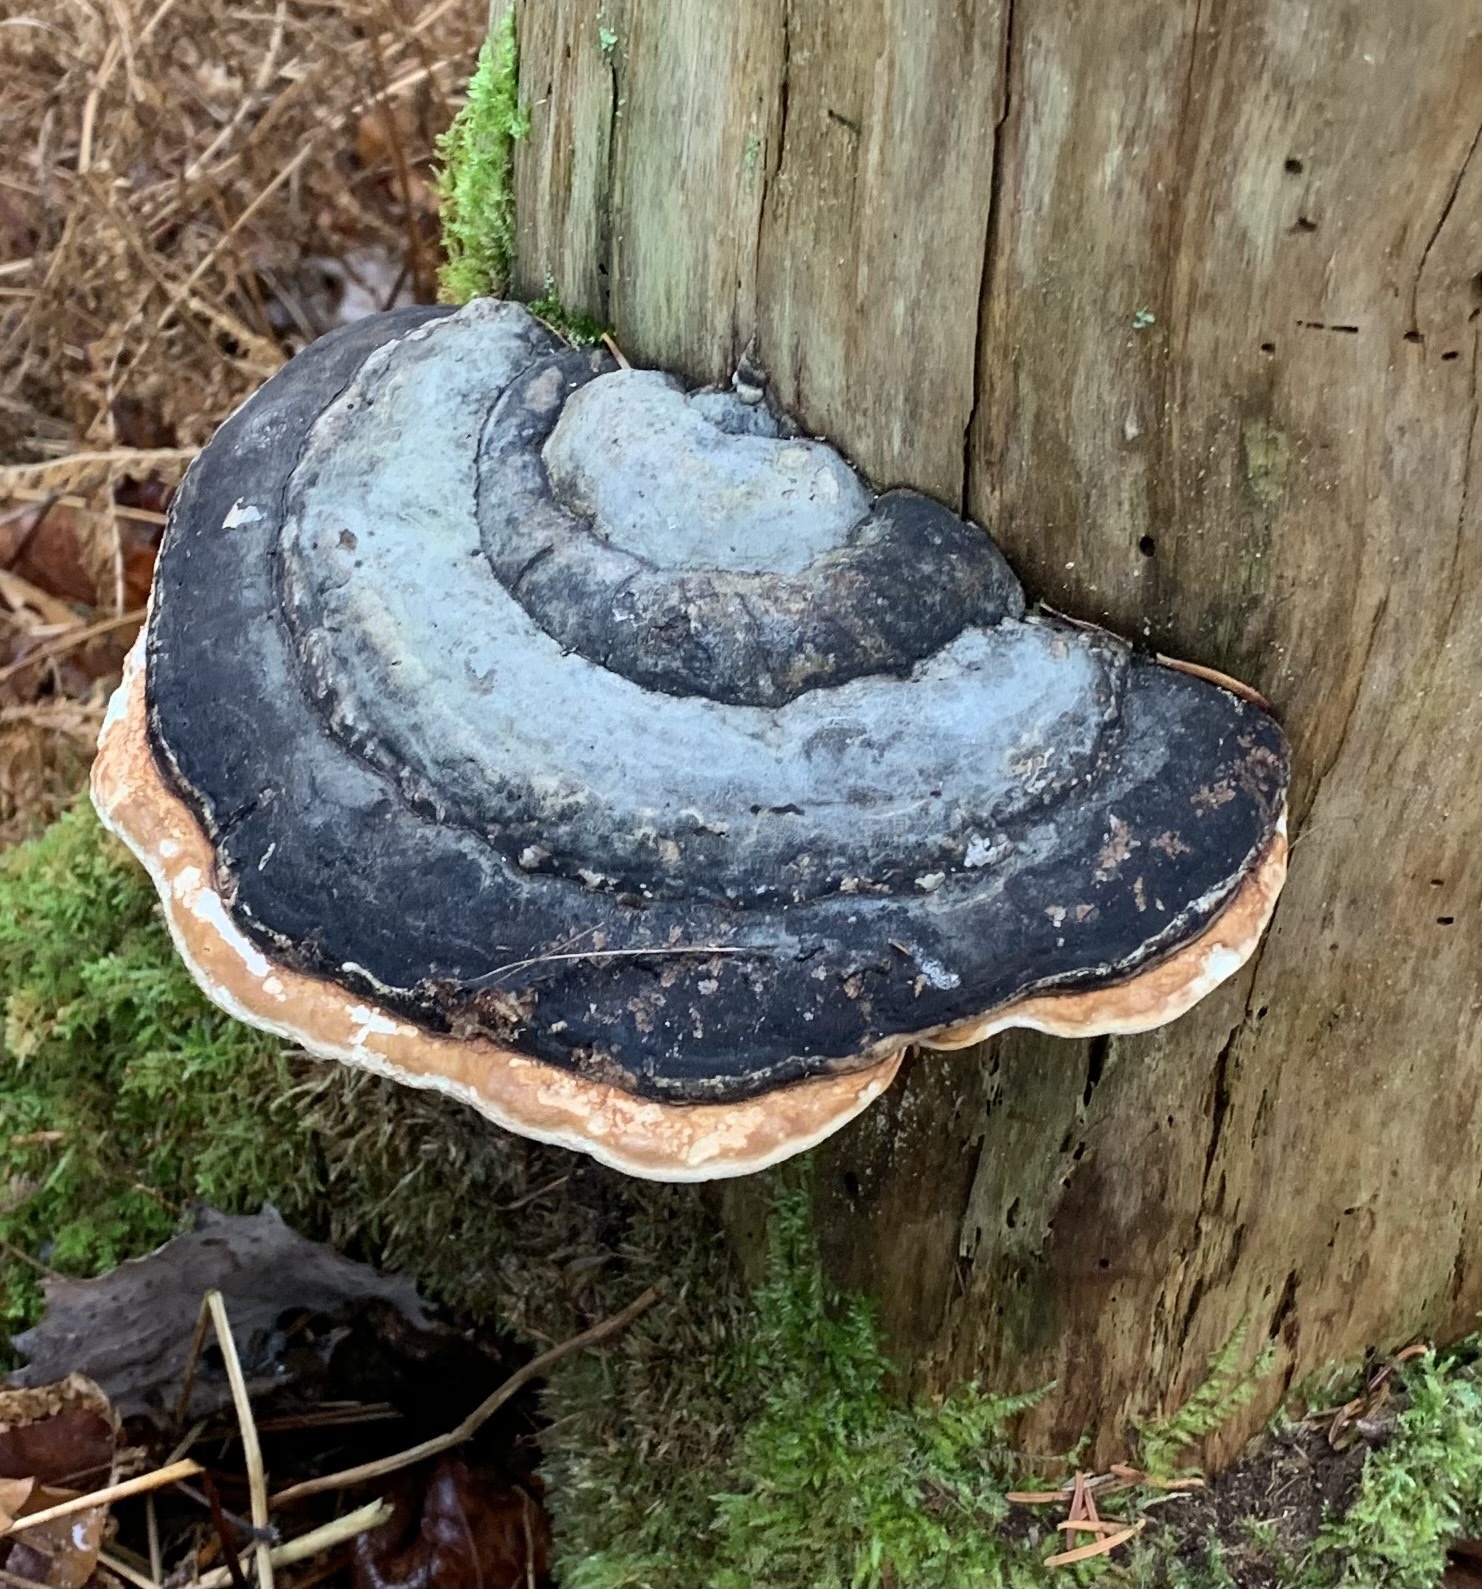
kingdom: Fungi
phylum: Basidiomycota
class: Agaricomycetes
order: Polyporales
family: Fomitopsidaceae
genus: Fomitopsis
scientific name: Fomitopsis mounceae
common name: Northern red belt
